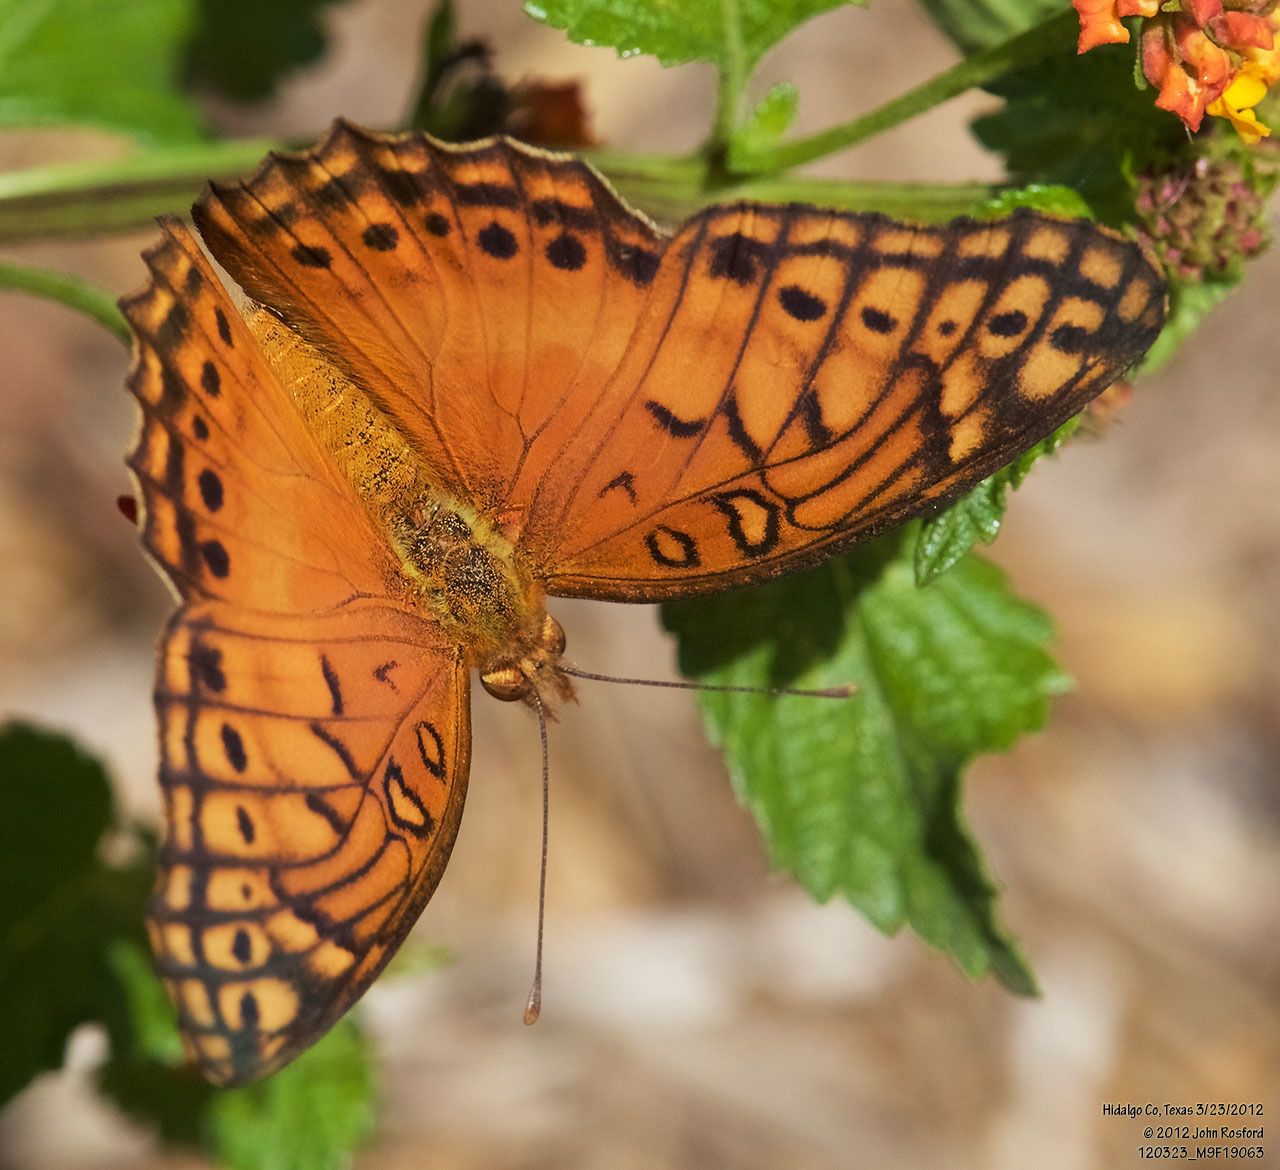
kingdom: Animalia
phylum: Arthropoda
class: Insecta
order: Lepidoptera
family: Nymphalidae
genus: Euptoieta
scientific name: Euptoieta hegesia
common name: Mexican fritillary
